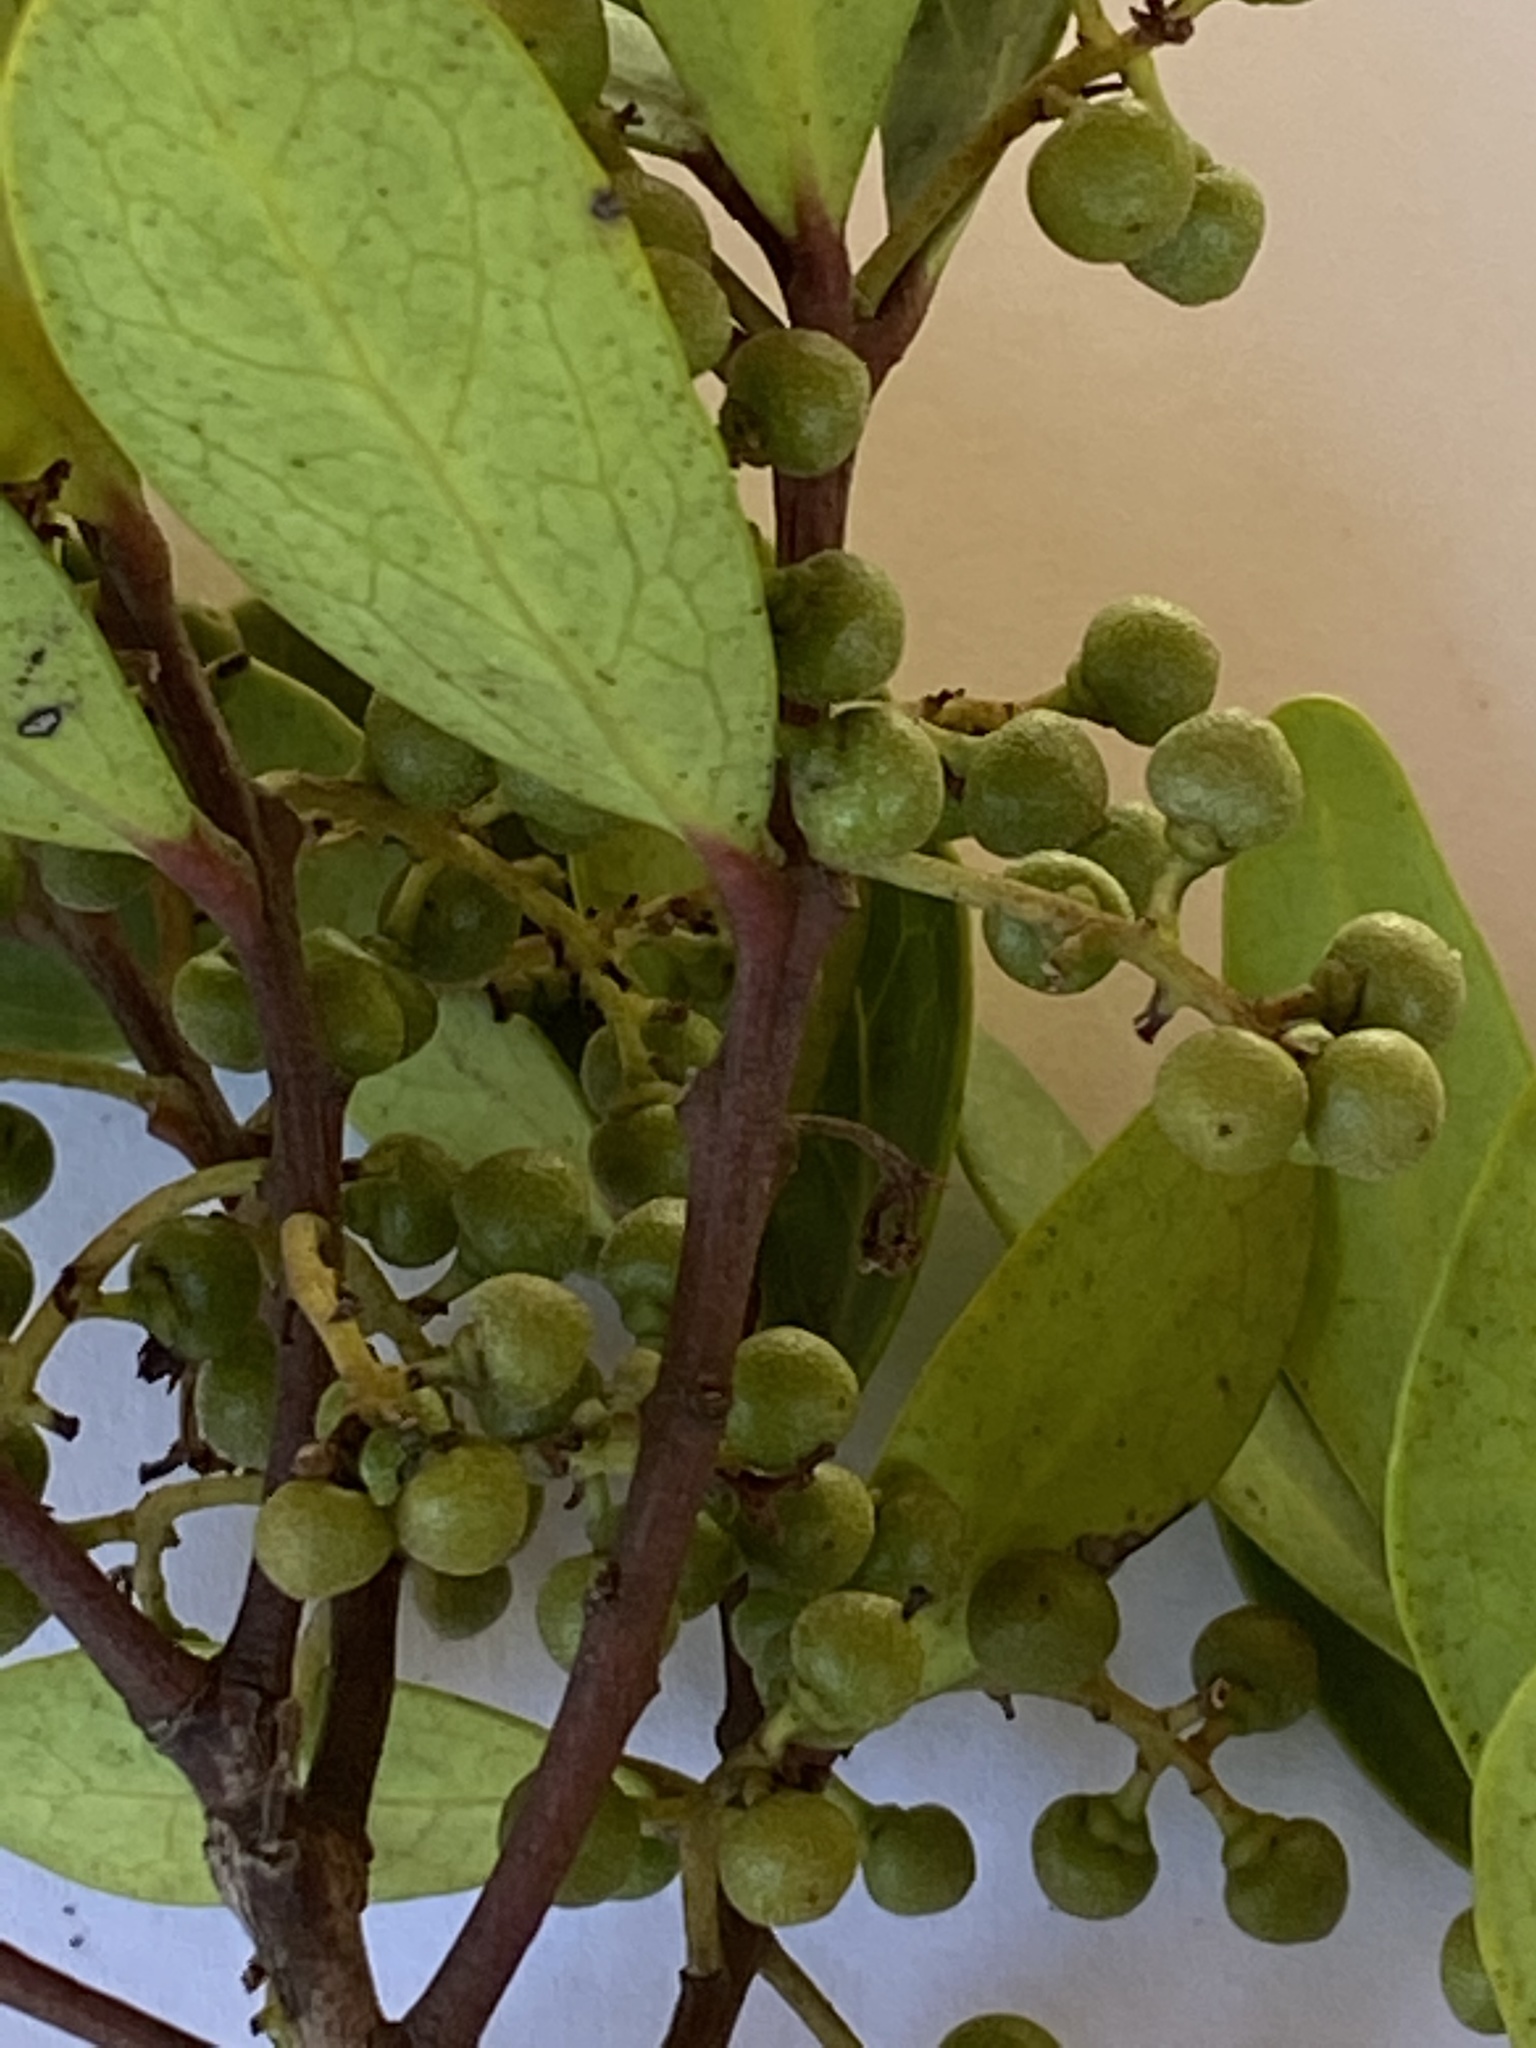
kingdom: Plantae
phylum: Tracheophyta
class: Magnoliopsida
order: Ericales
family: Ebenaceae
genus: Euclea
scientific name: Euclea racemosa
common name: Dune guarri
